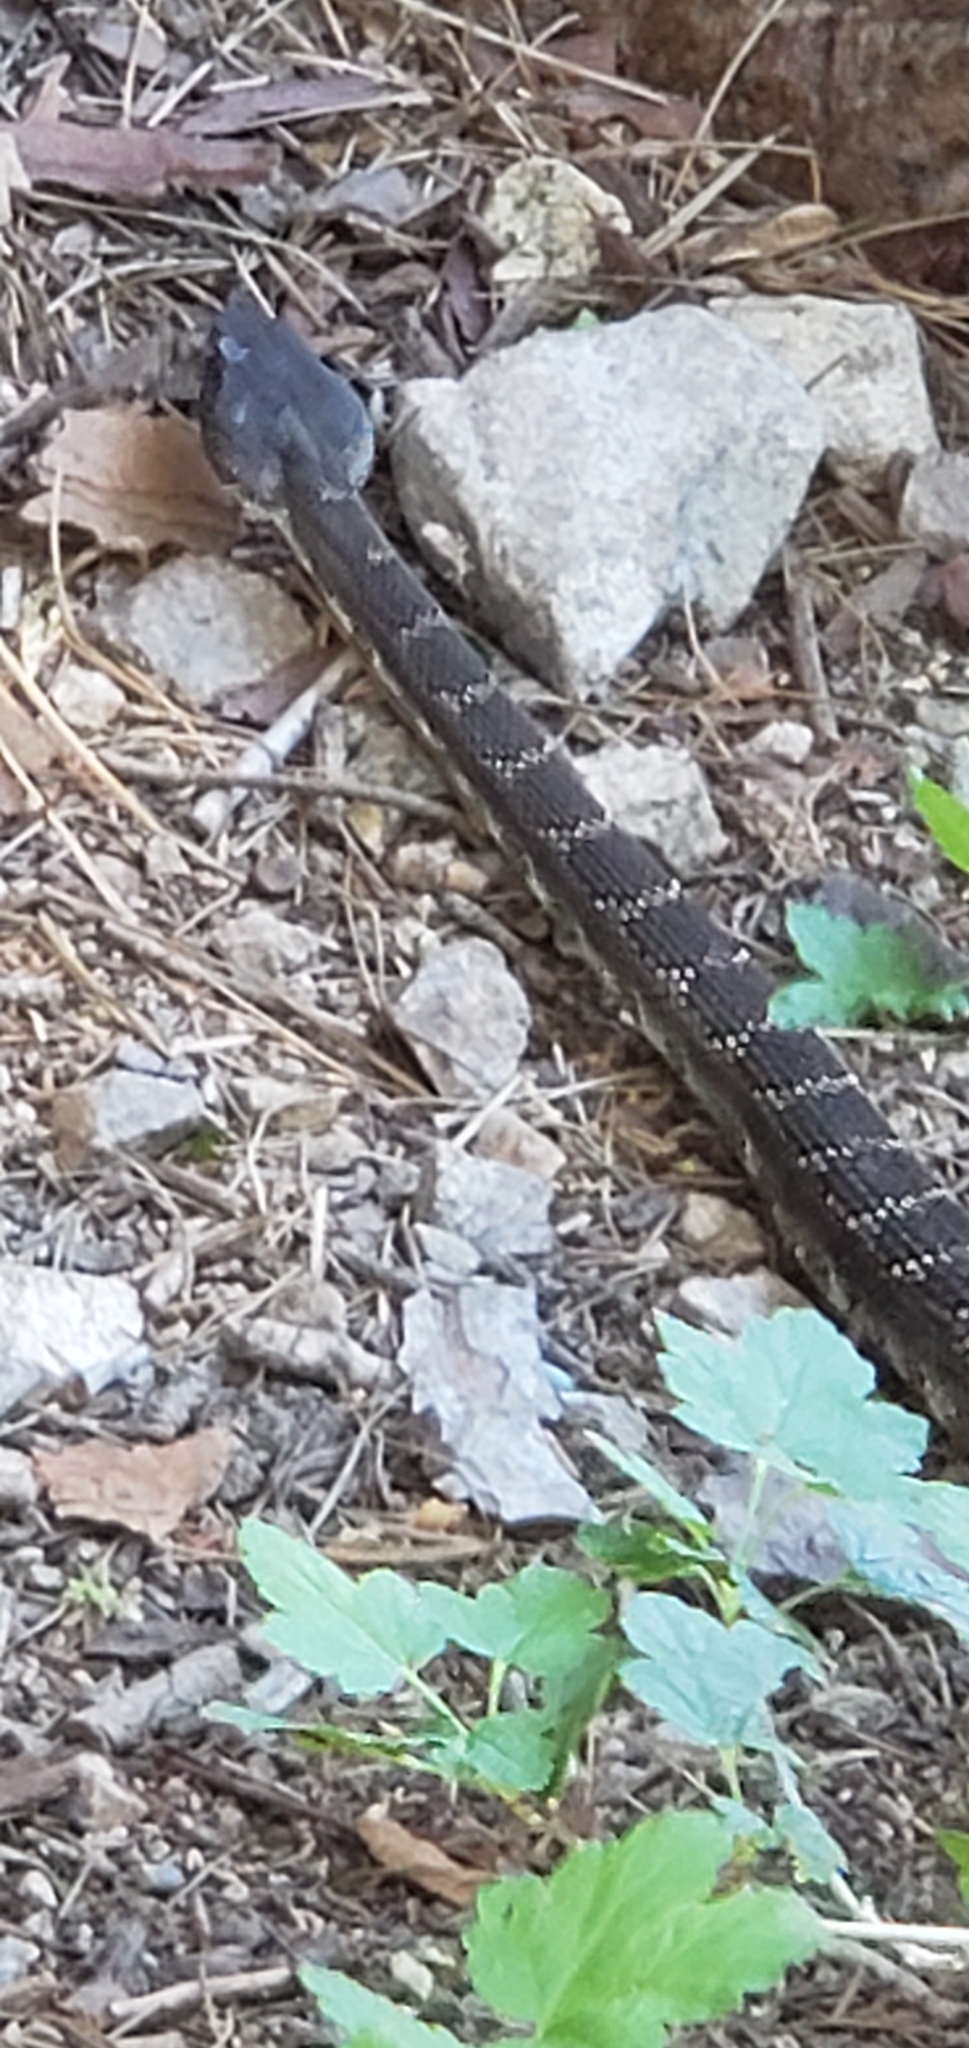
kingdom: Animalia
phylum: Chordata
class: Squamata
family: Viperidae
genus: Crotalus
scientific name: Crotalus oreganus
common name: Abyssus
